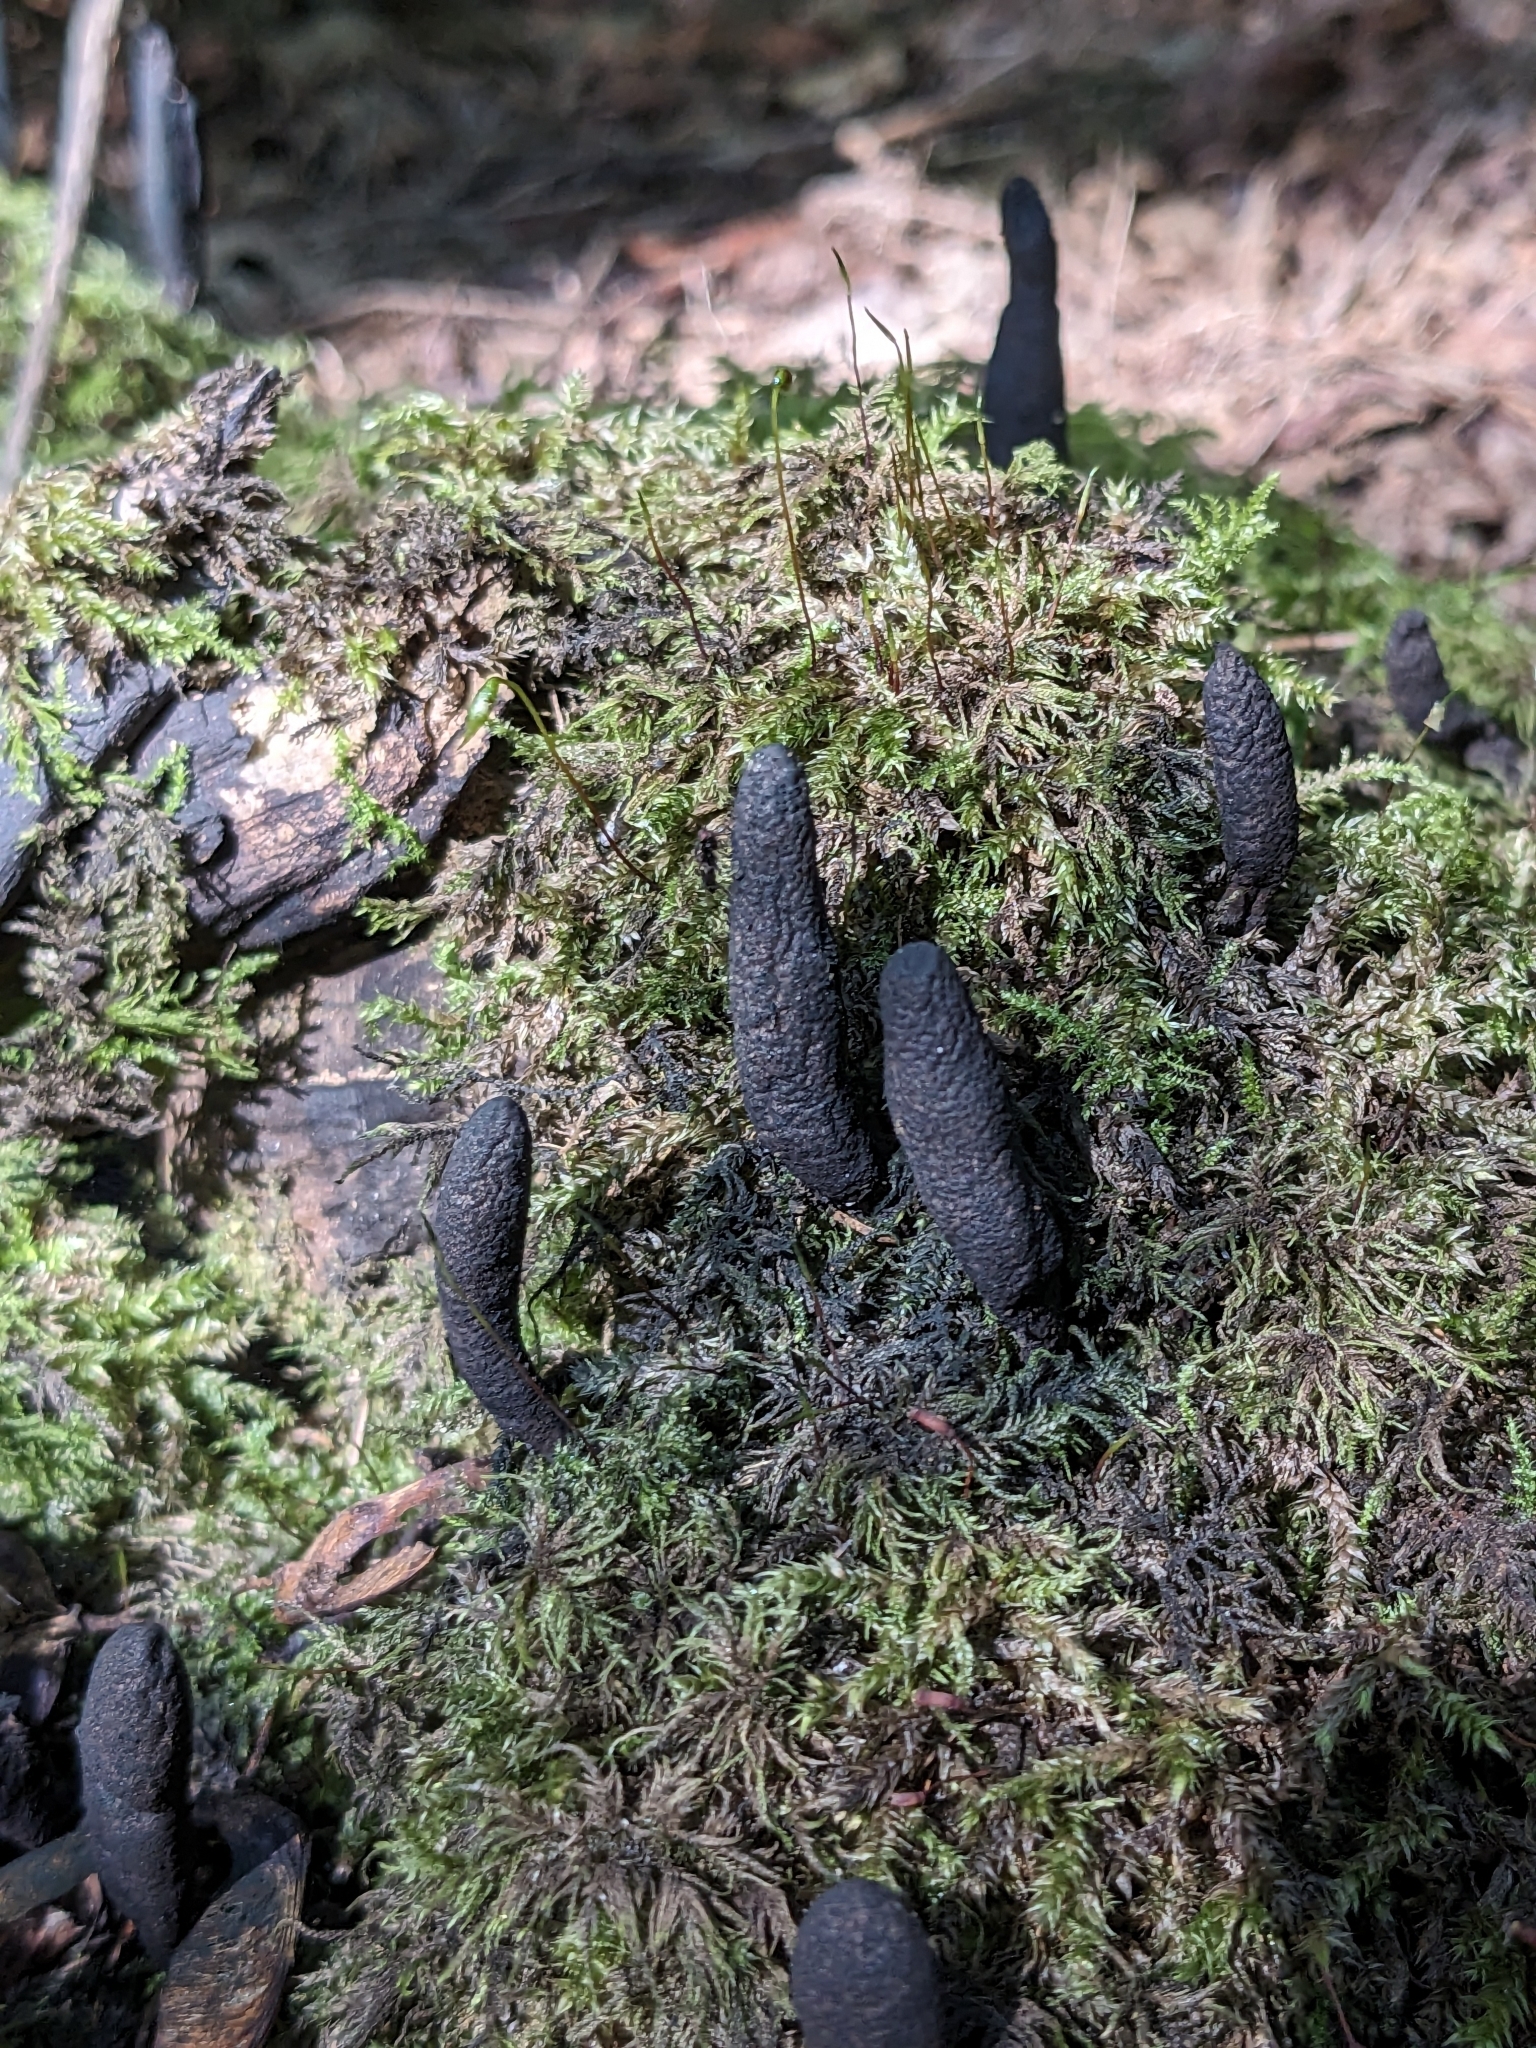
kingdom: Fungi
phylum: Ascomycota
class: Sordariomycetes
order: Xylariales
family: Xylariaceae
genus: Xylaria
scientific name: Xylaria longipes
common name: Dead moll's fingers
